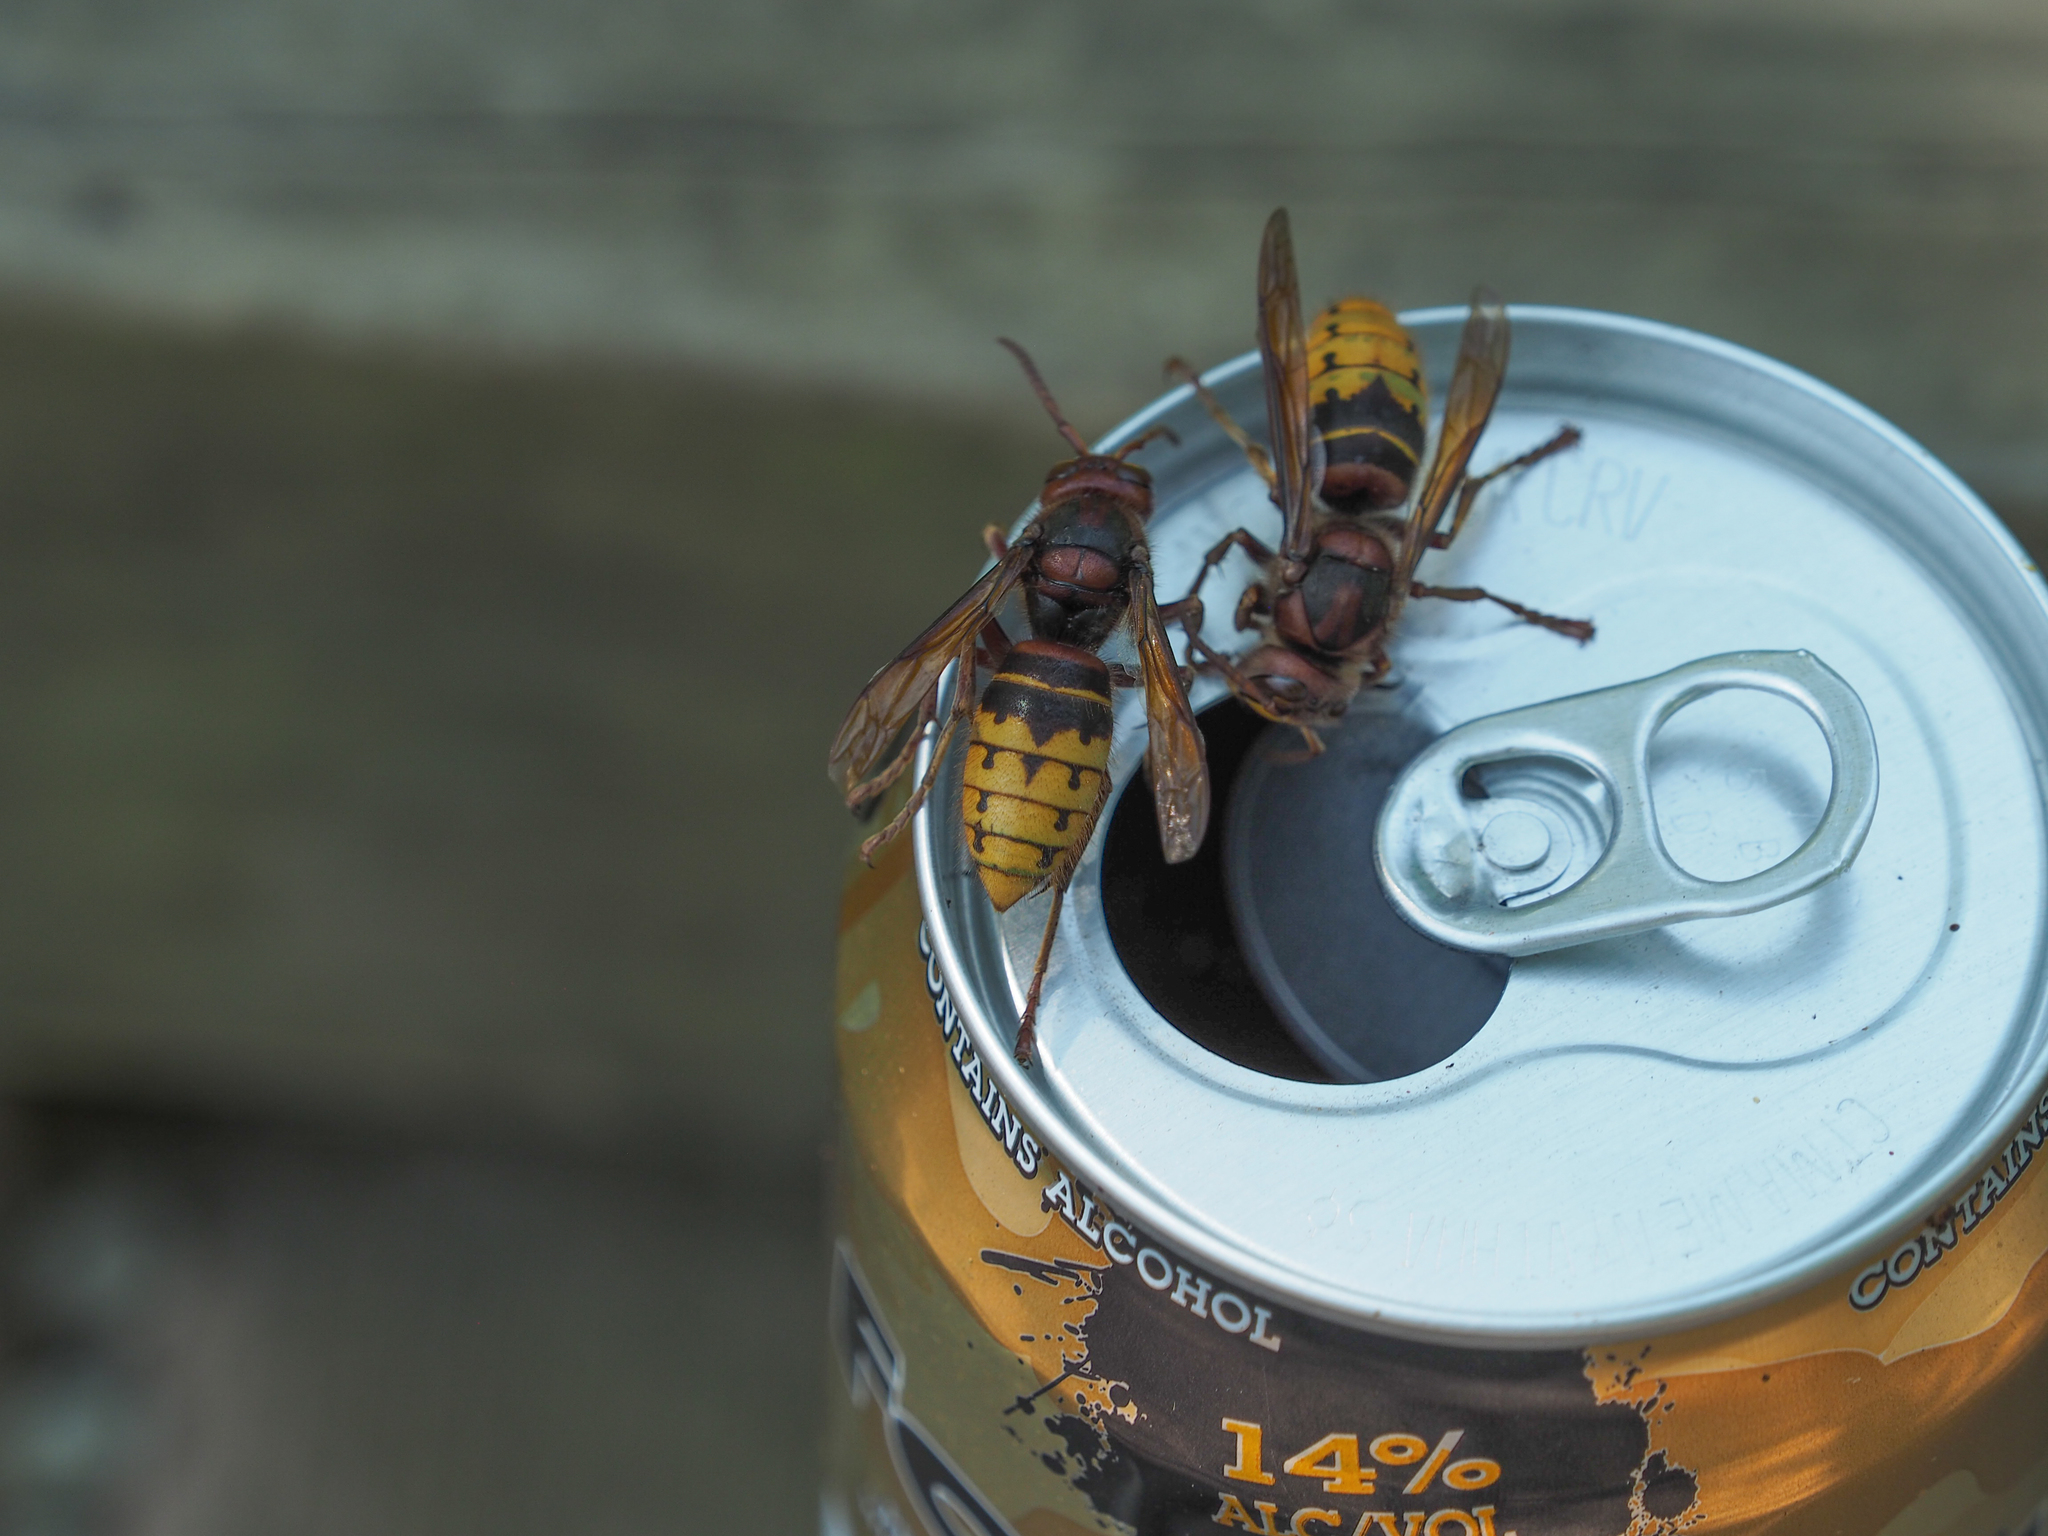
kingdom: Animalia
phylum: Arthropoda
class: Insecta
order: Hymenoptera
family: Vespidae
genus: Vespa
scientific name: Vespa crabro
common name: Hornet
